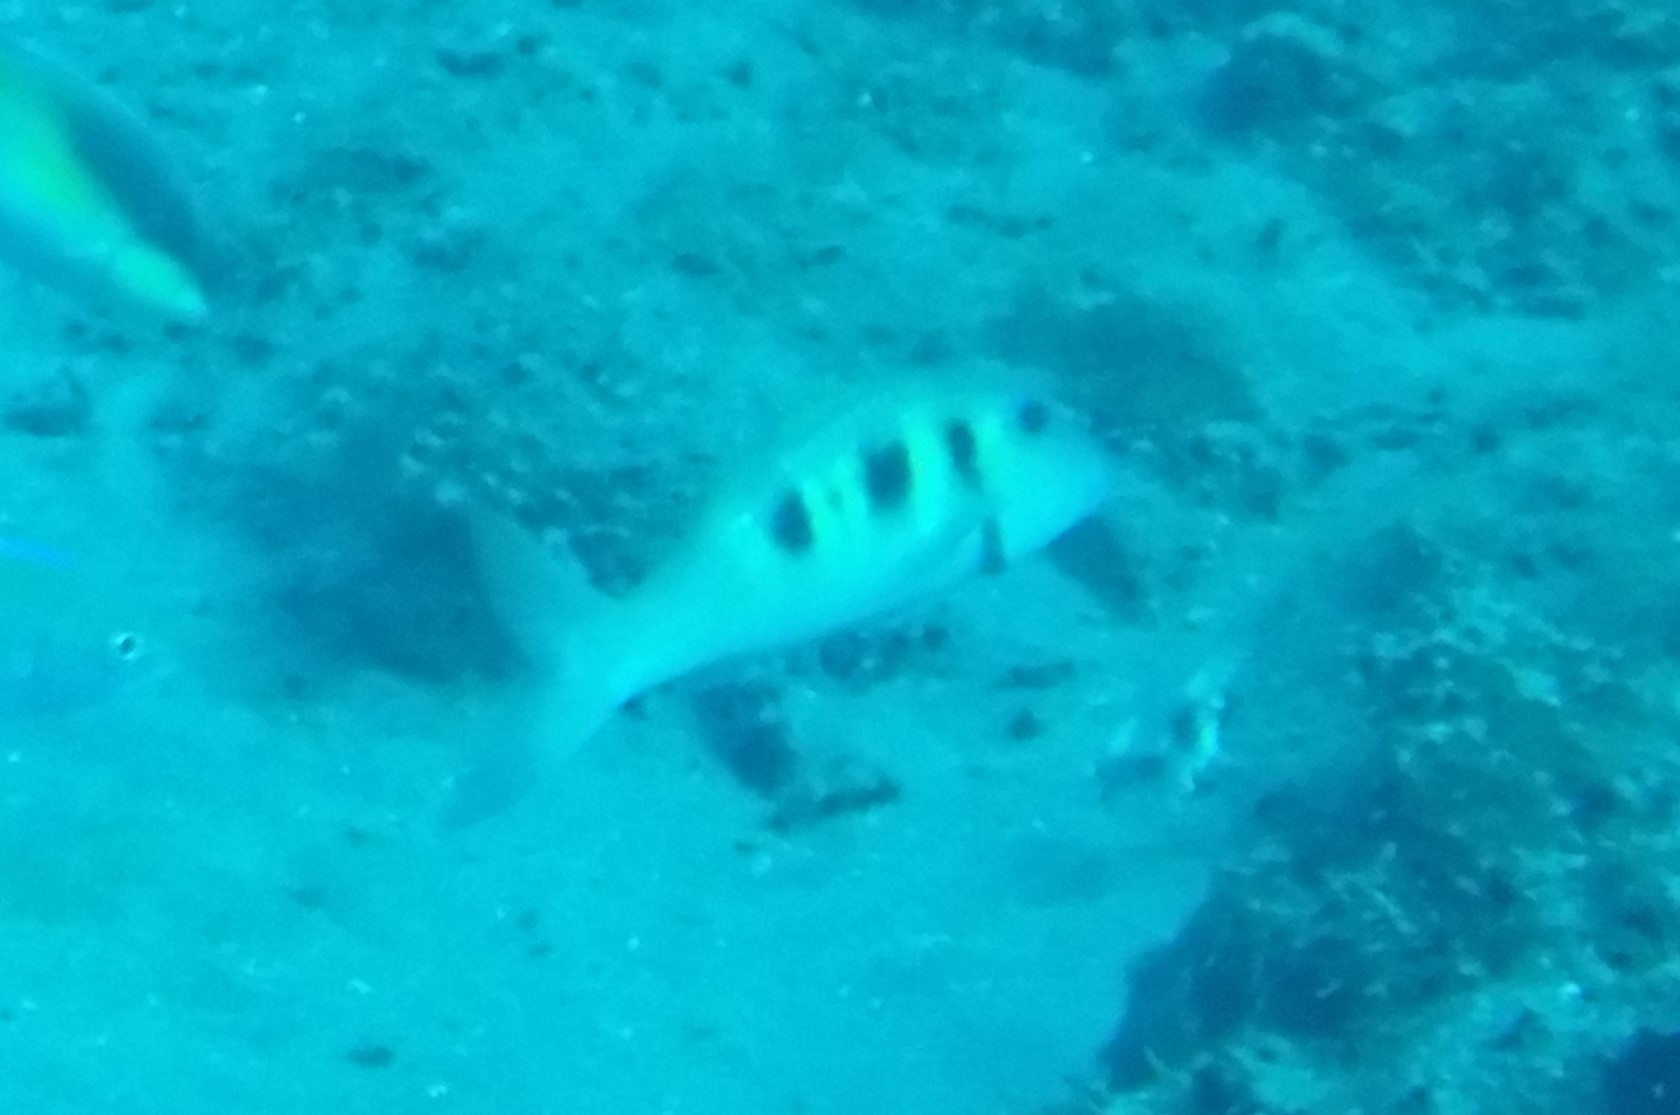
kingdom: Animalia
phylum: Chordata
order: Perciformes
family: Mullidae
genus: Pseudupeneus
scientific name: Pseudupeneus maculatus
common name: Spotted goatfish
